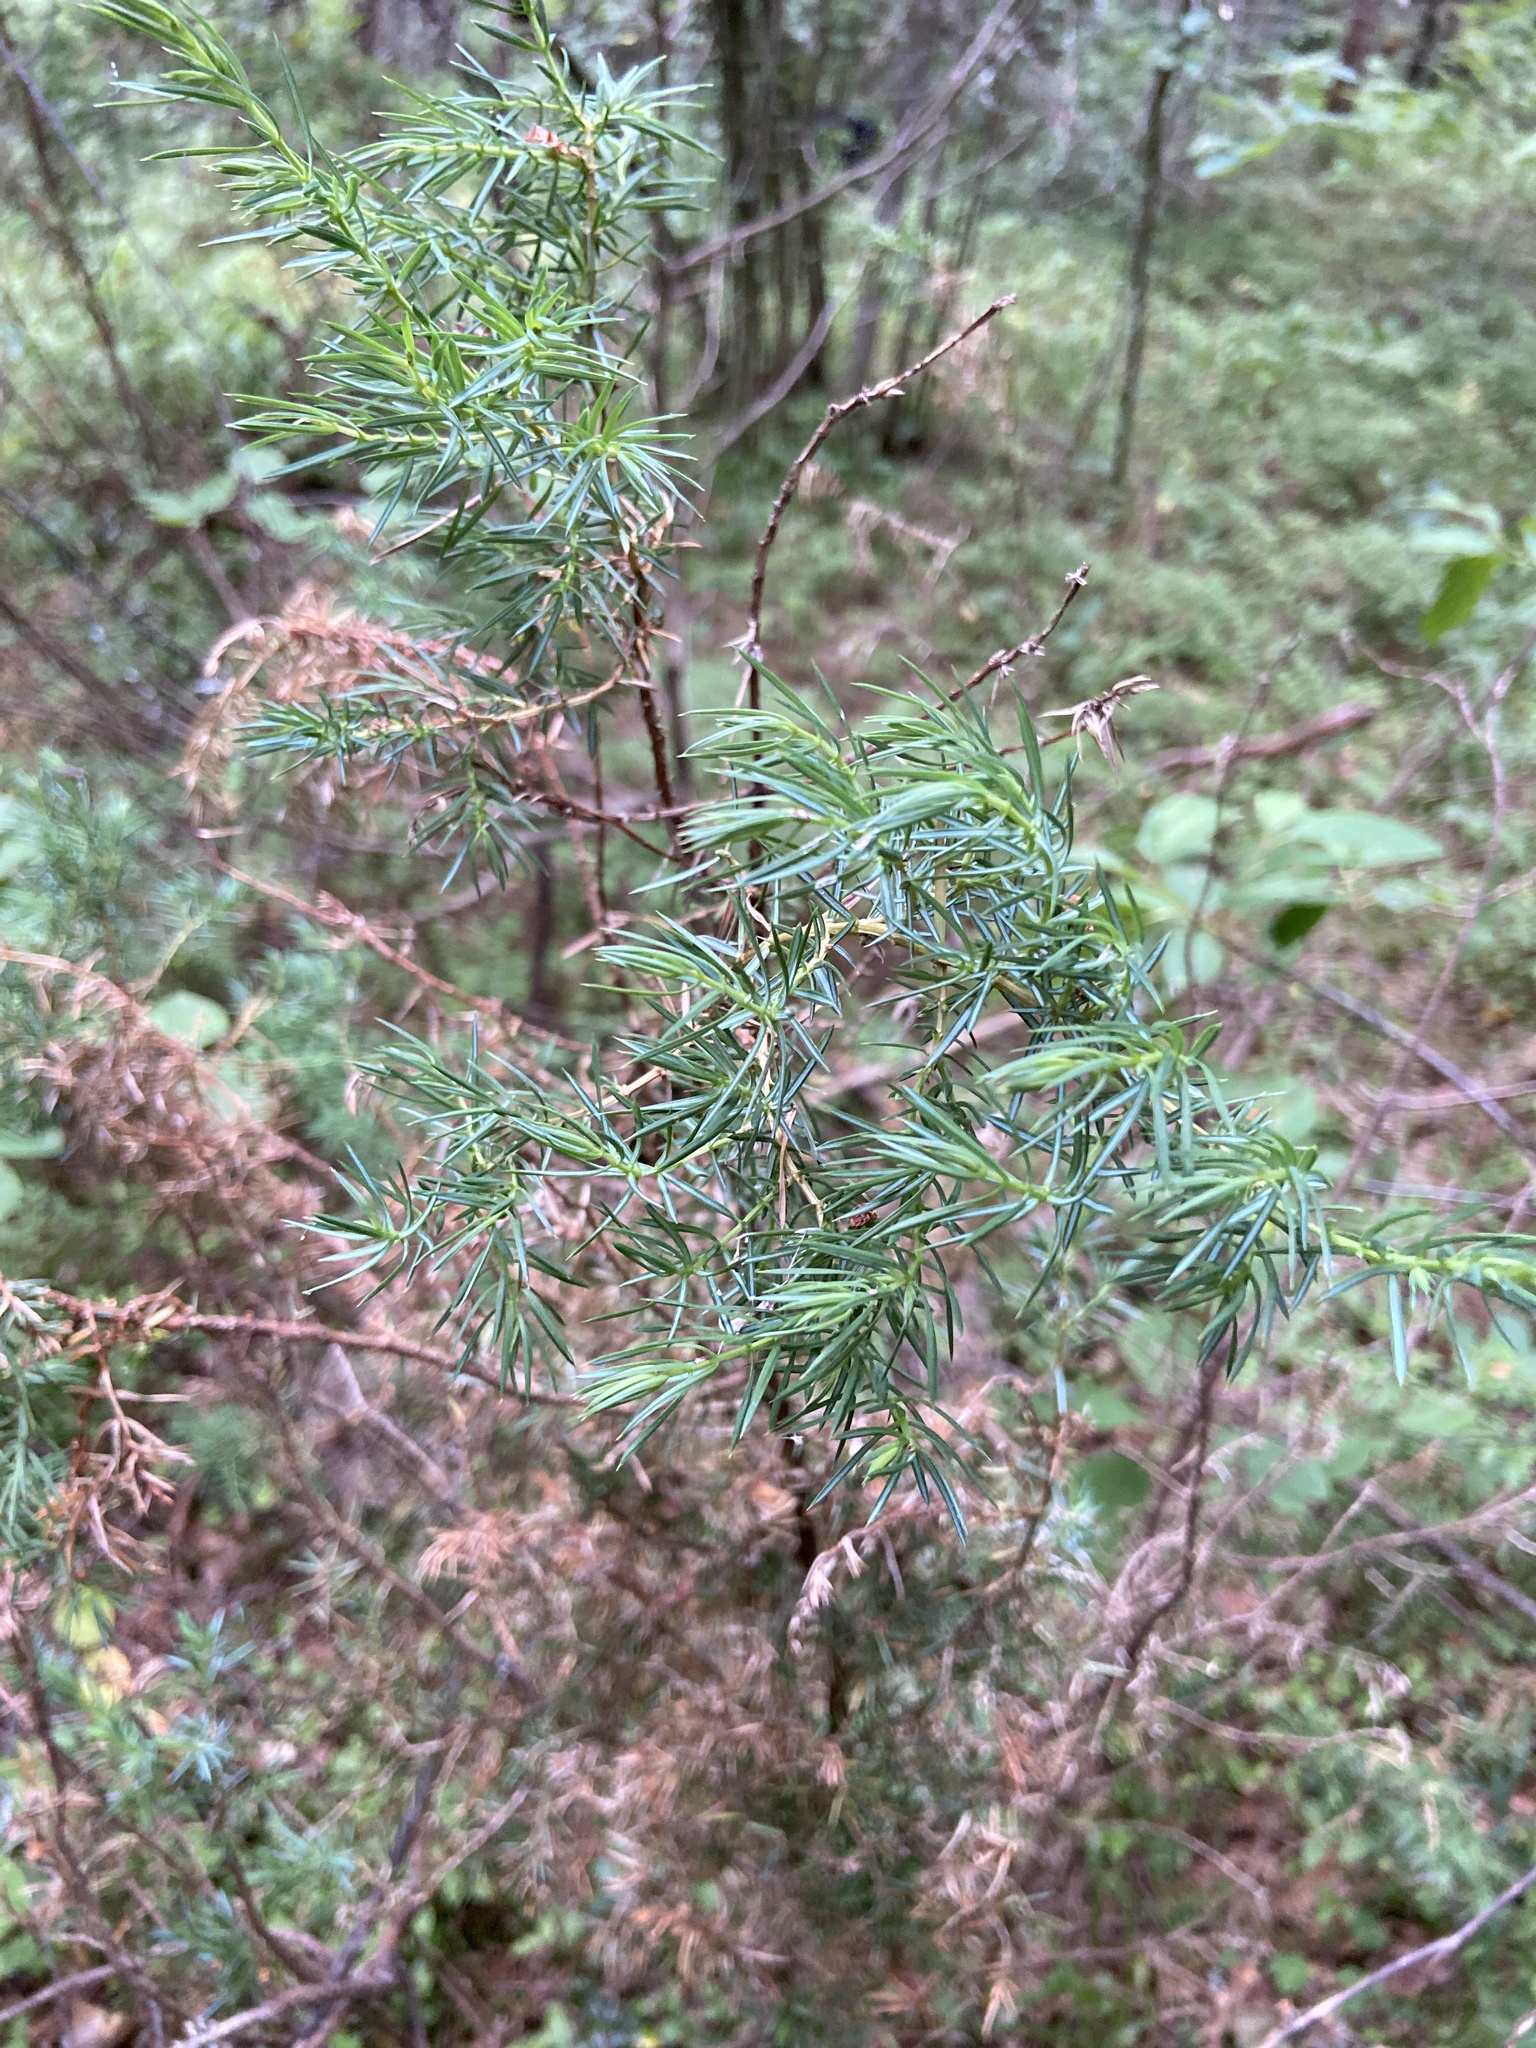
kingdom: Plantae
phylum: Tracheophyta
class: Pinopsida
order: Pinales
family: Cupressaceae
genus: Juniperus
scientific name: Juniperus communis
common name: Common juniper
